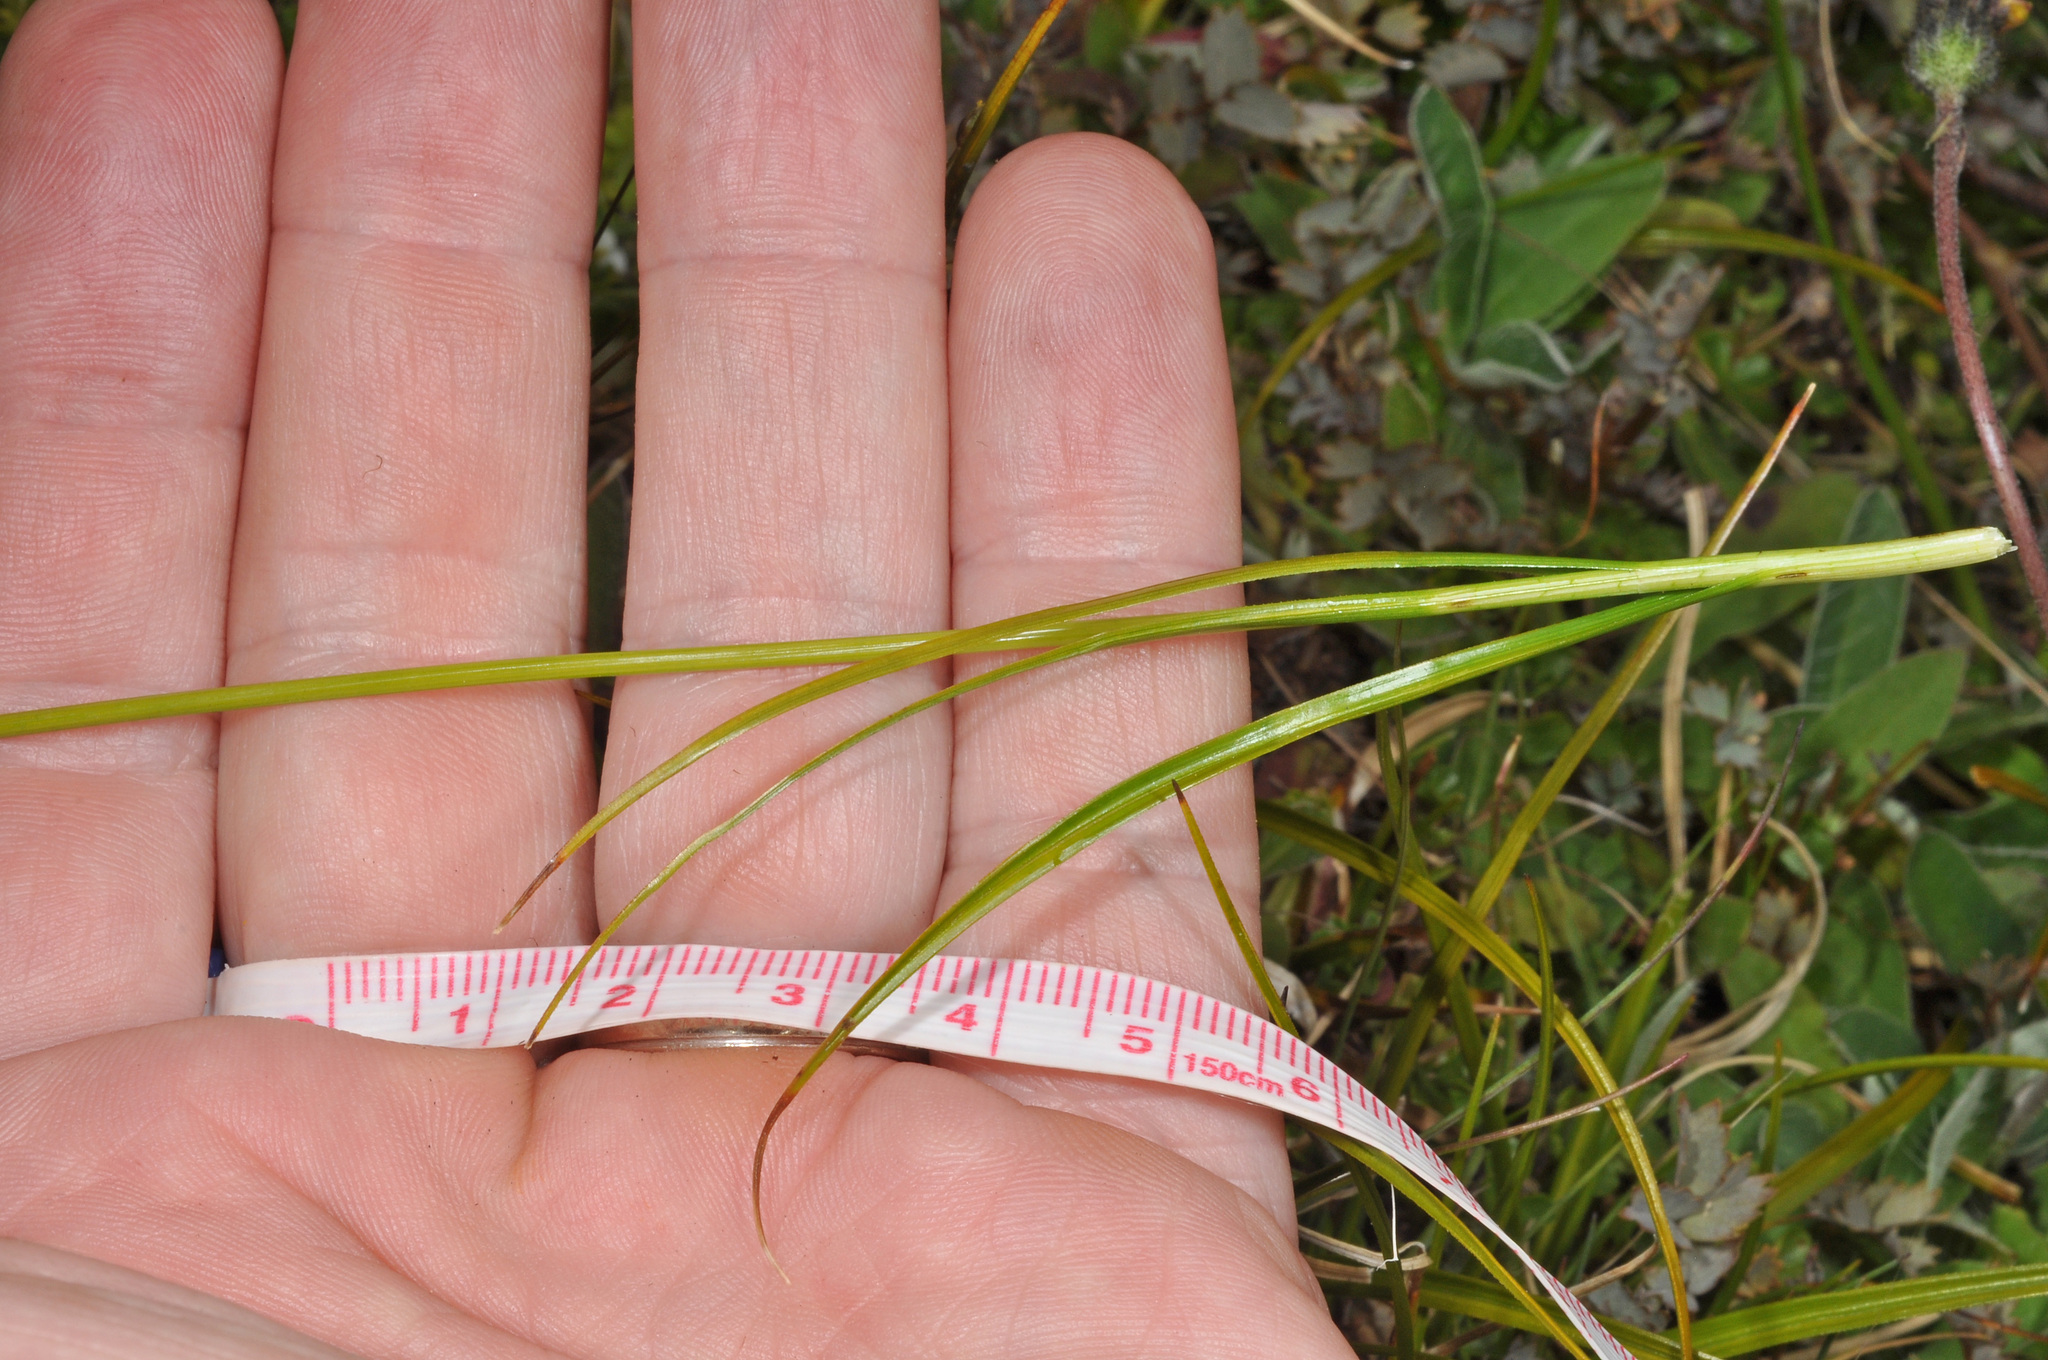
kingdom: Plantae
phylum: Tracheophyta
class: Liliopsida
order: Poales
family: Cyperaceae
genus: Carex
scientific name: Carex edura
